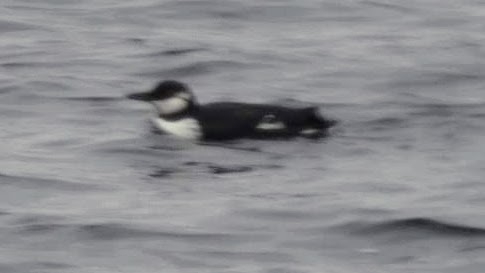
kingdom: Animalia
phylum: Chordata
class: Aves
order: Charadriiformes
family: Alcidae
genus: Uria
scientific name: Uria aalge
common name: Common murre
